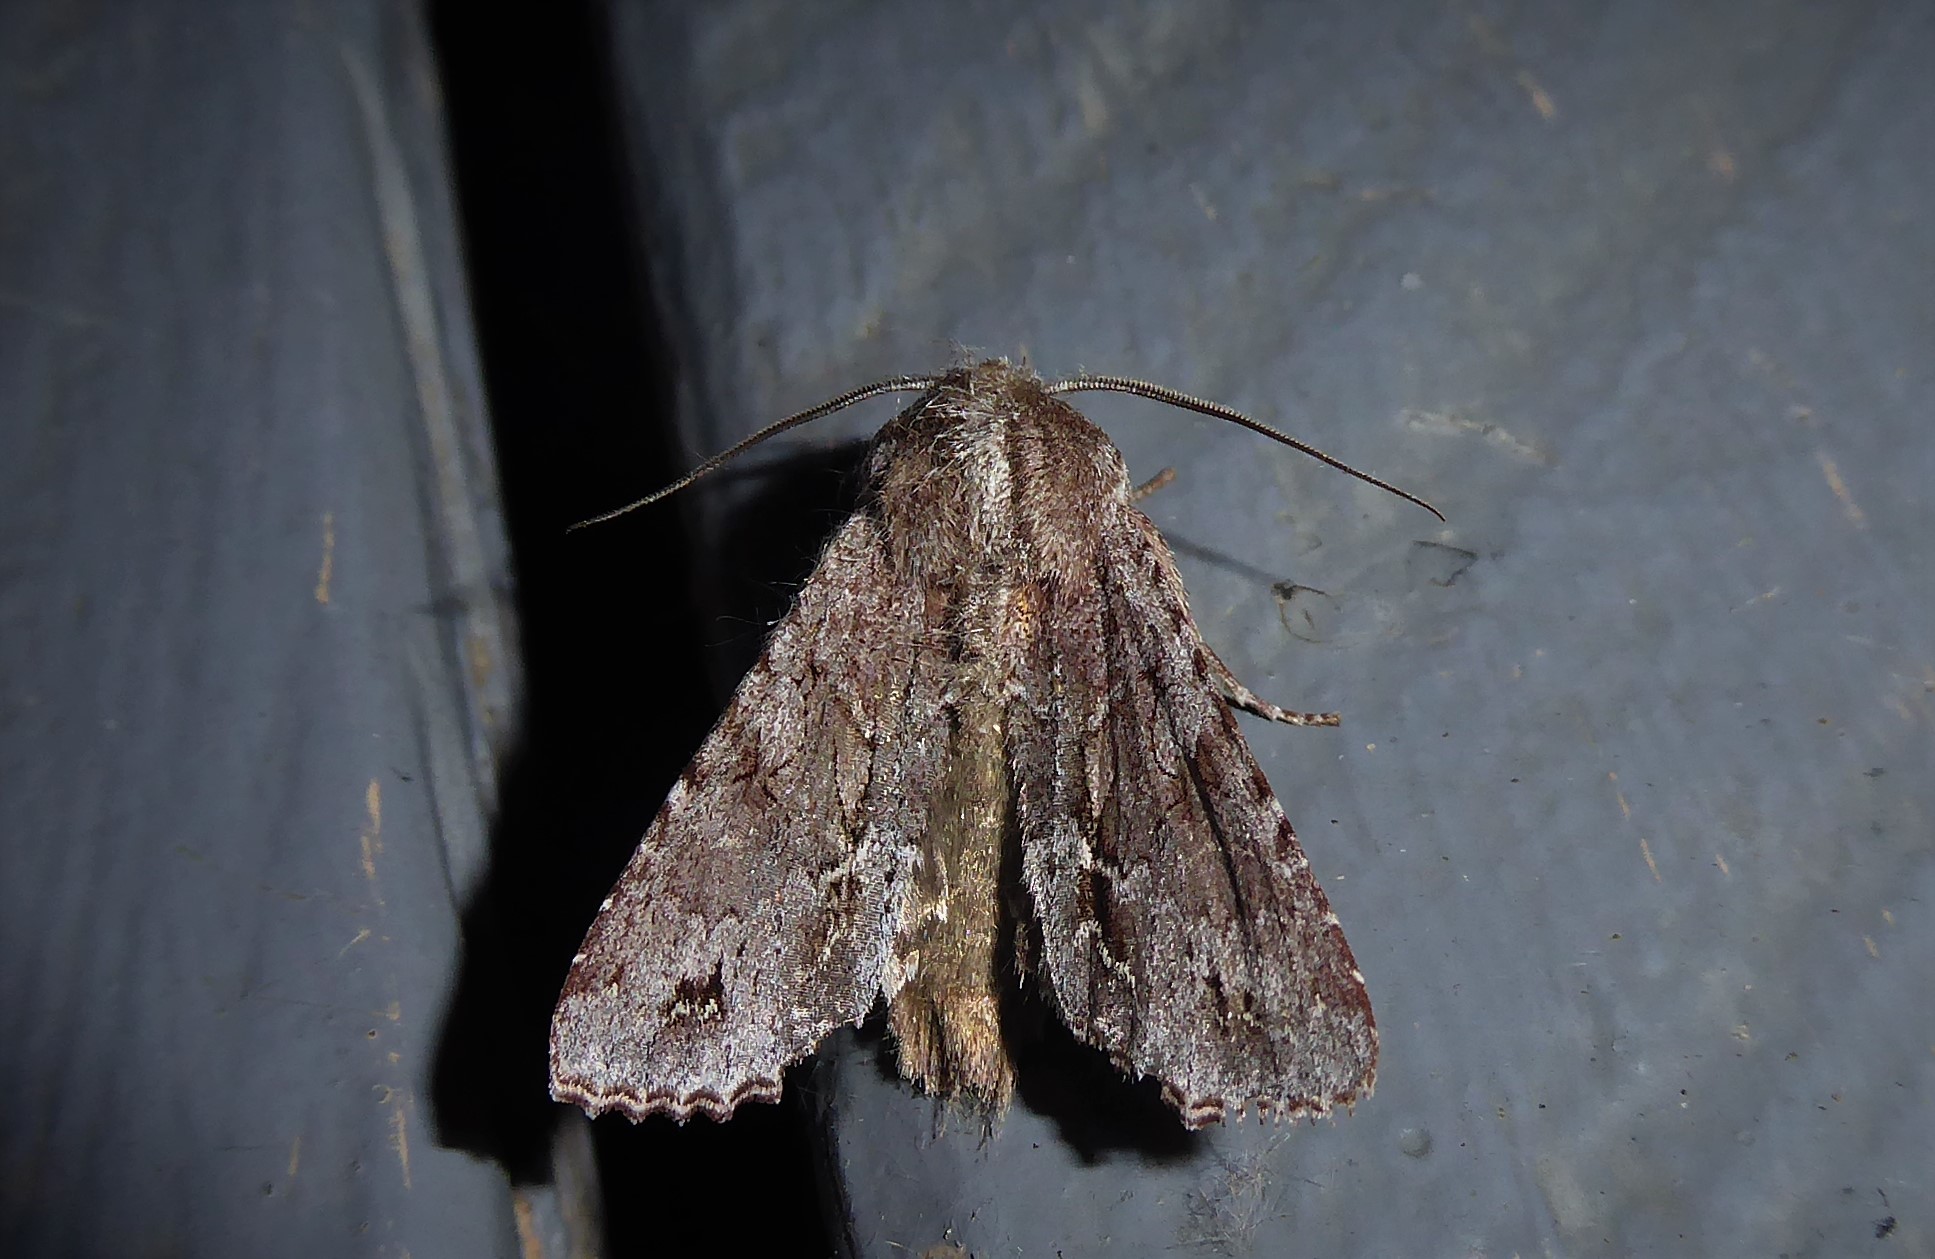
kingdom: Animalia
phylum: Arthropoda
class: Insecta
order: Lepidoptera
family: Noctuidae
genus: Ichneutica
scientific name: Ichneutica
